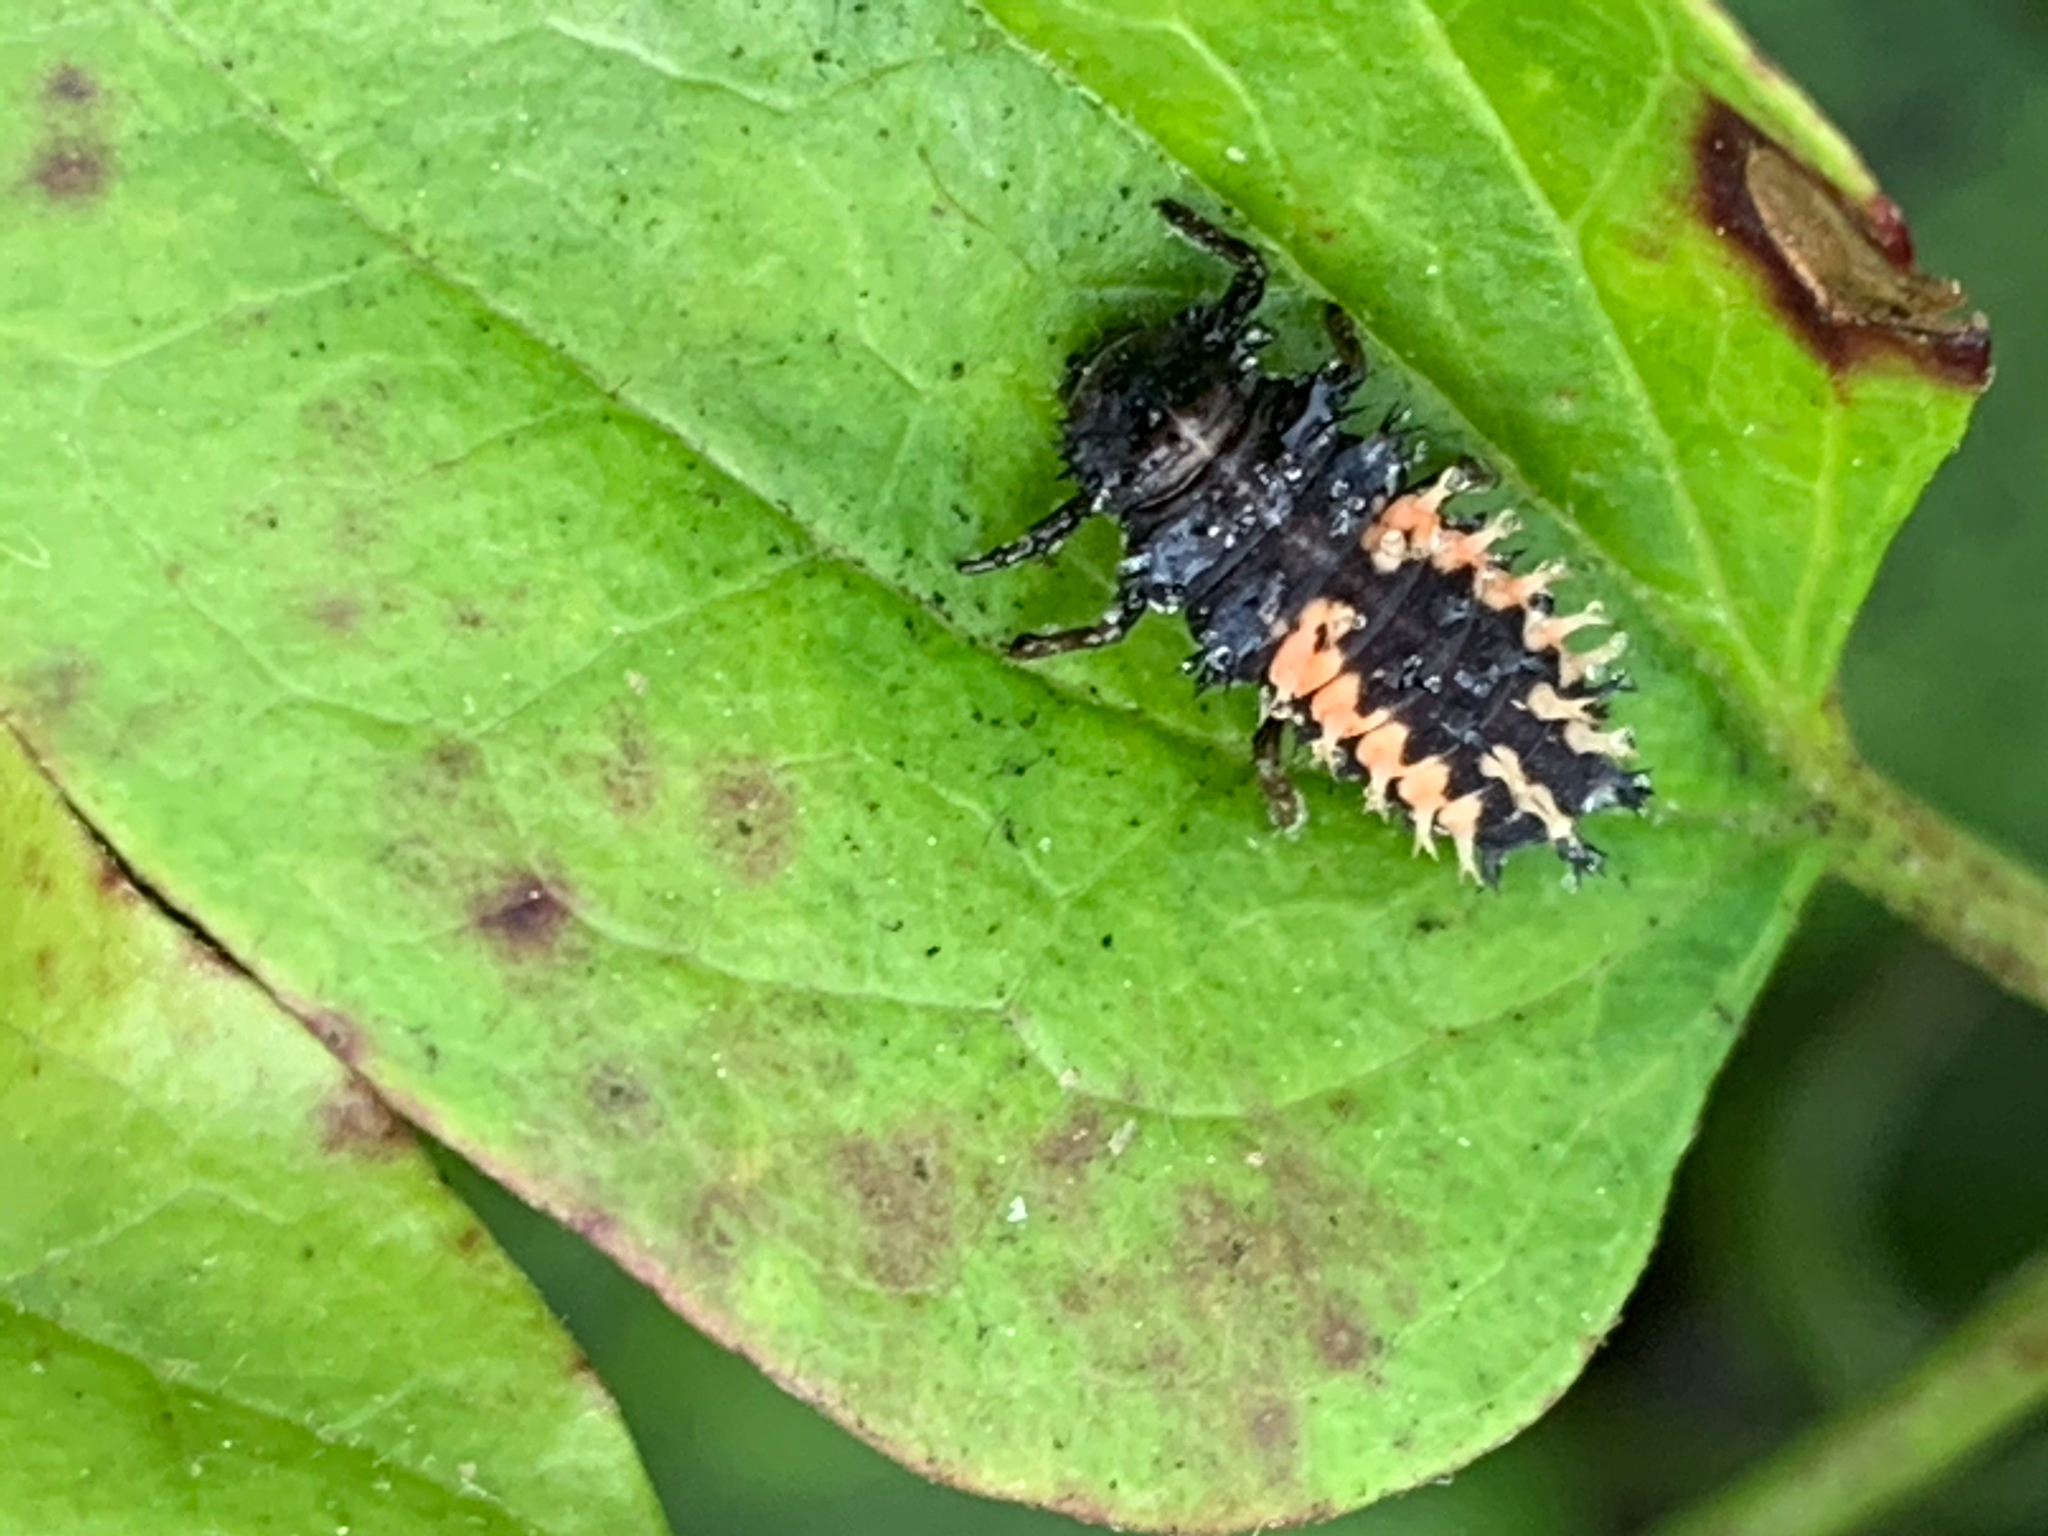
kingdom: Animalia
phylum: Arthropoda
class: Insecta
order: Coleoptera
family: Coccinellidae
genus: Harmonia
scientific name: Harmonia axyridis
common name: Harlequin ladybird
